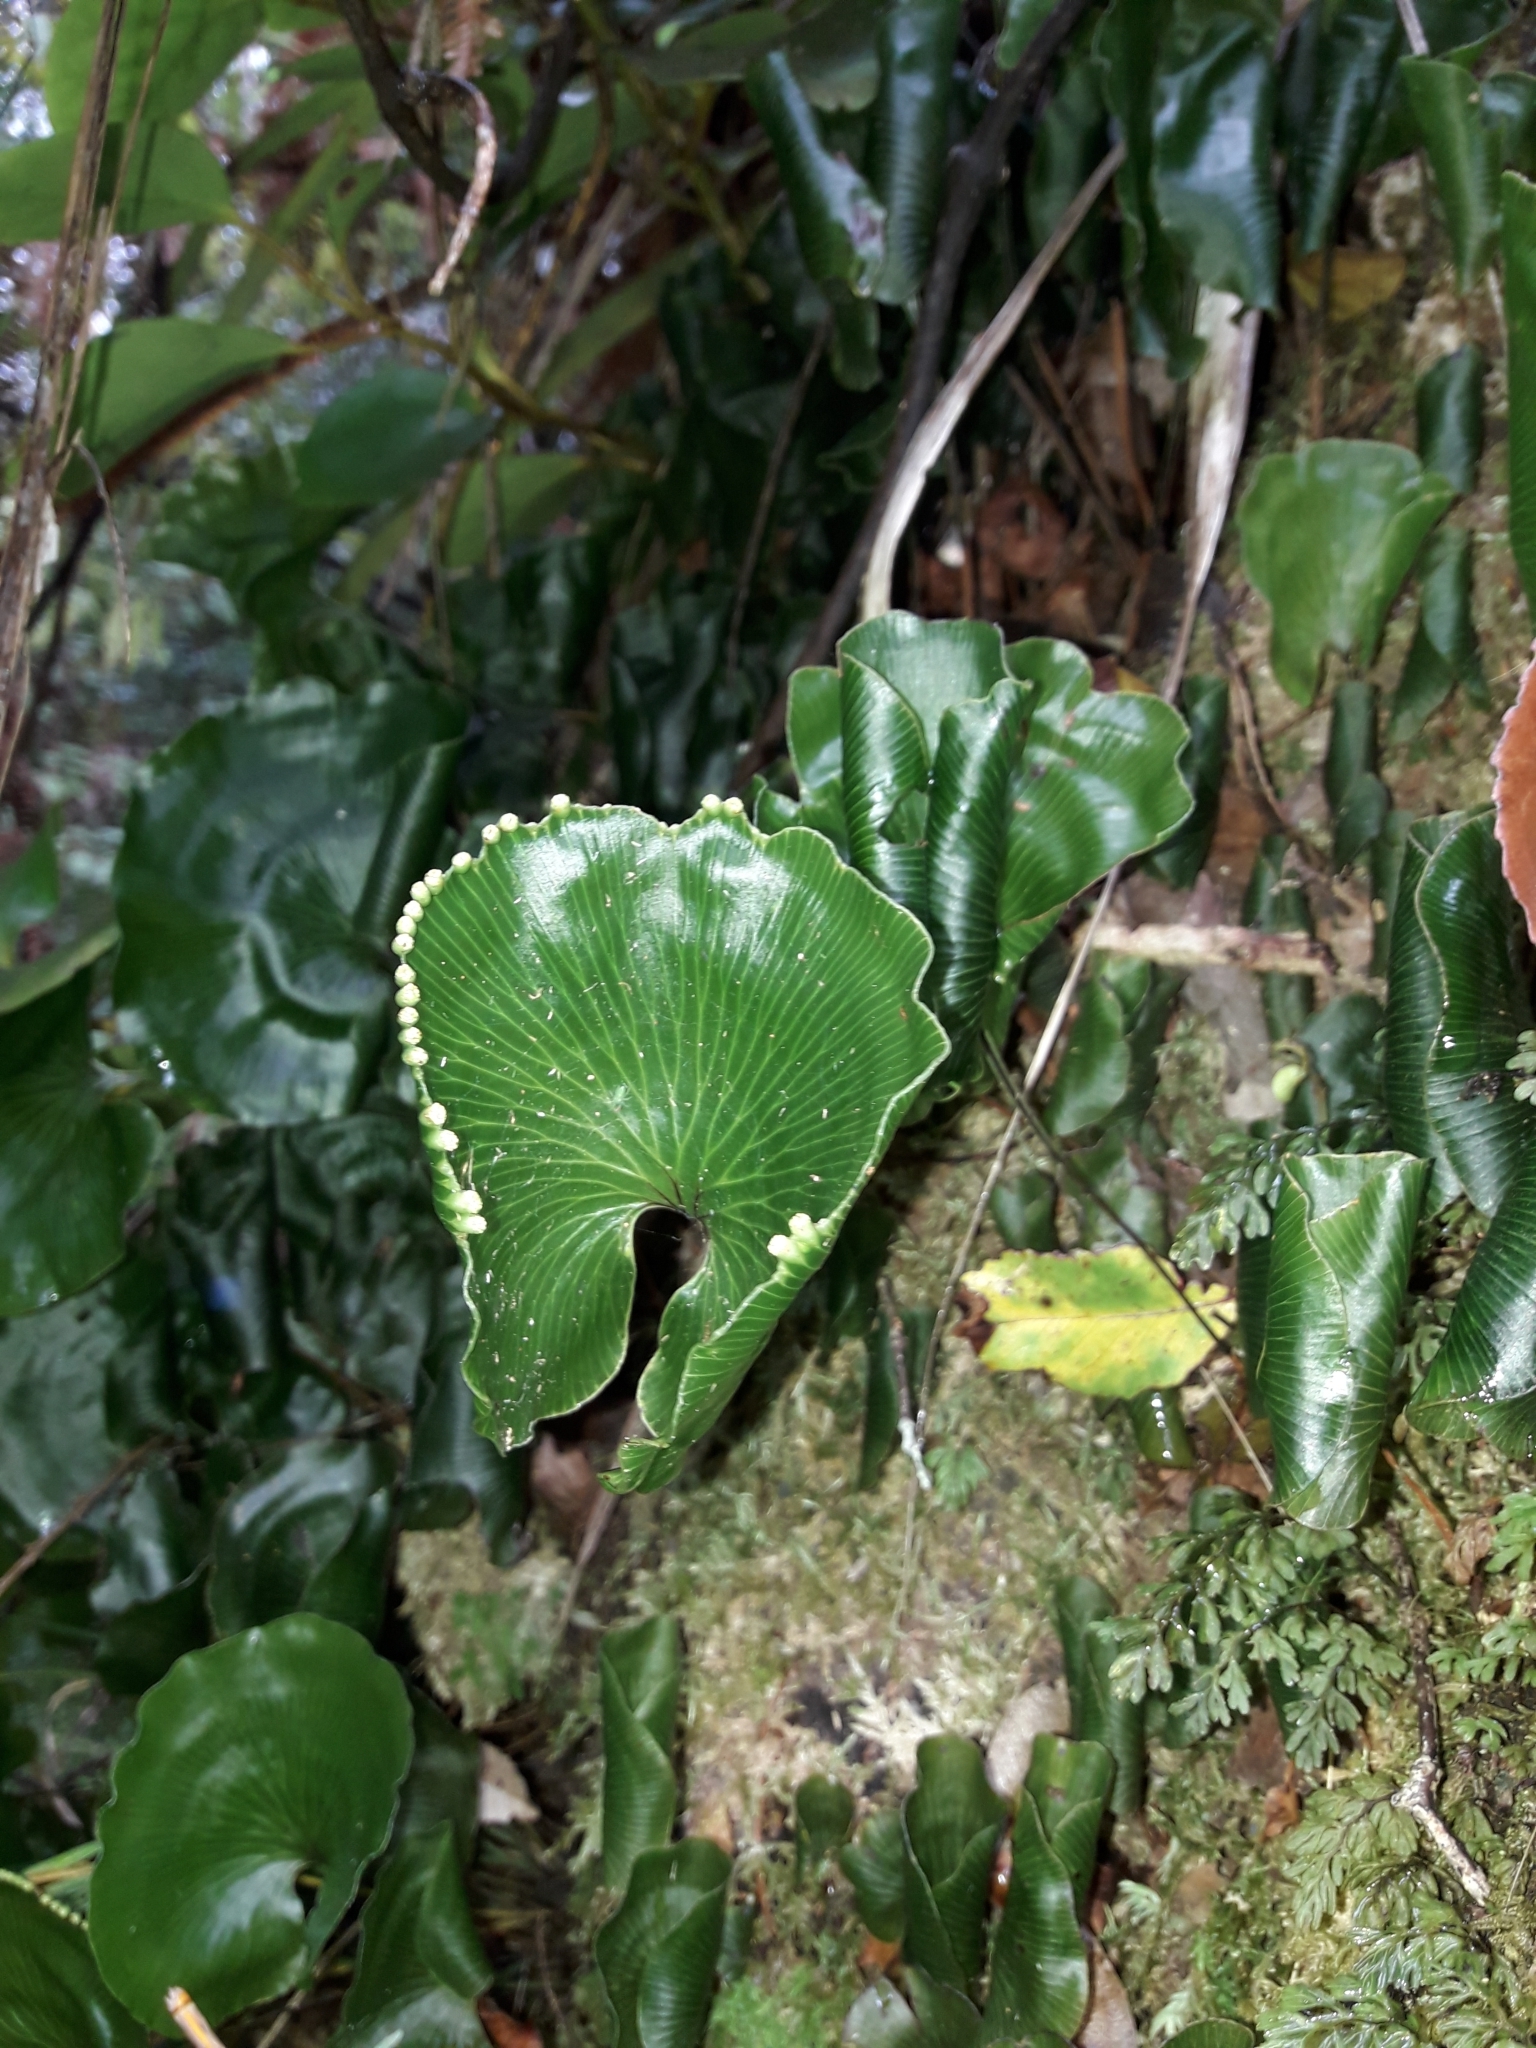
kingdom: Plantae
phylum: Tracheophyta
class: Polypodiopsida
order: Hymenophyllales
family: Hymenophyllaceae
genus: Hymenophyllum
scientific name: Hymenophyllum nephrophyllum
